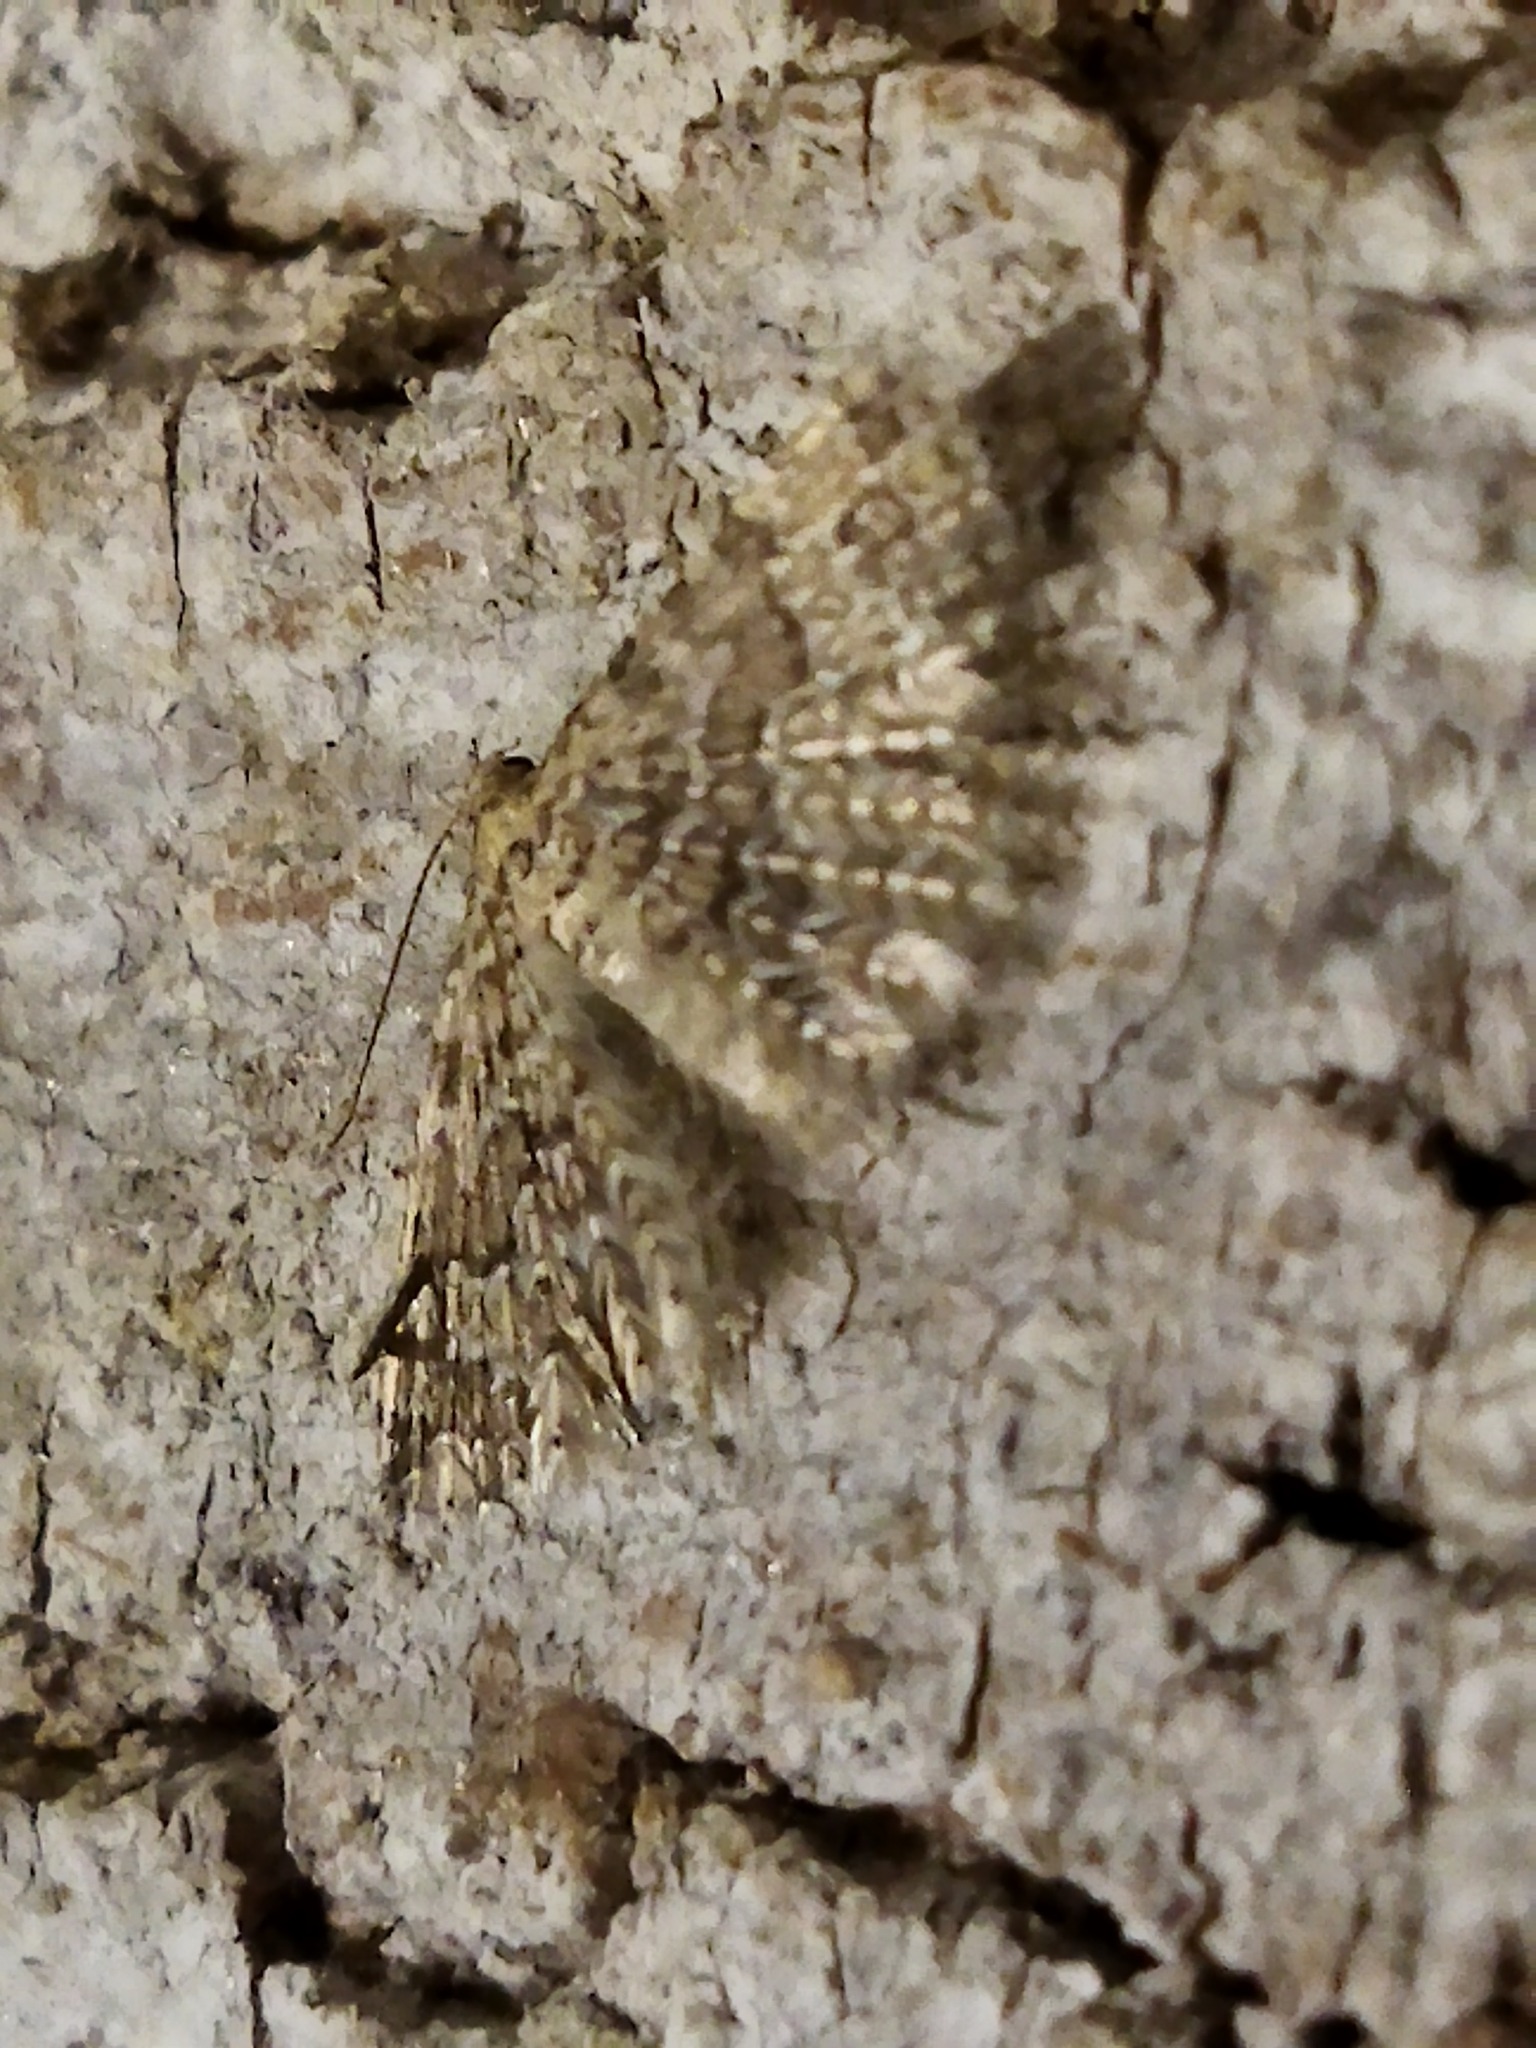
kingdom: Animalia
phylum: Arthropoda
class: Insecta
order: Lepidoptera
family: Alucitidae
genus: Alucita
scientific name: Alucita hexadactyla
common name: Twenty-plume moth
